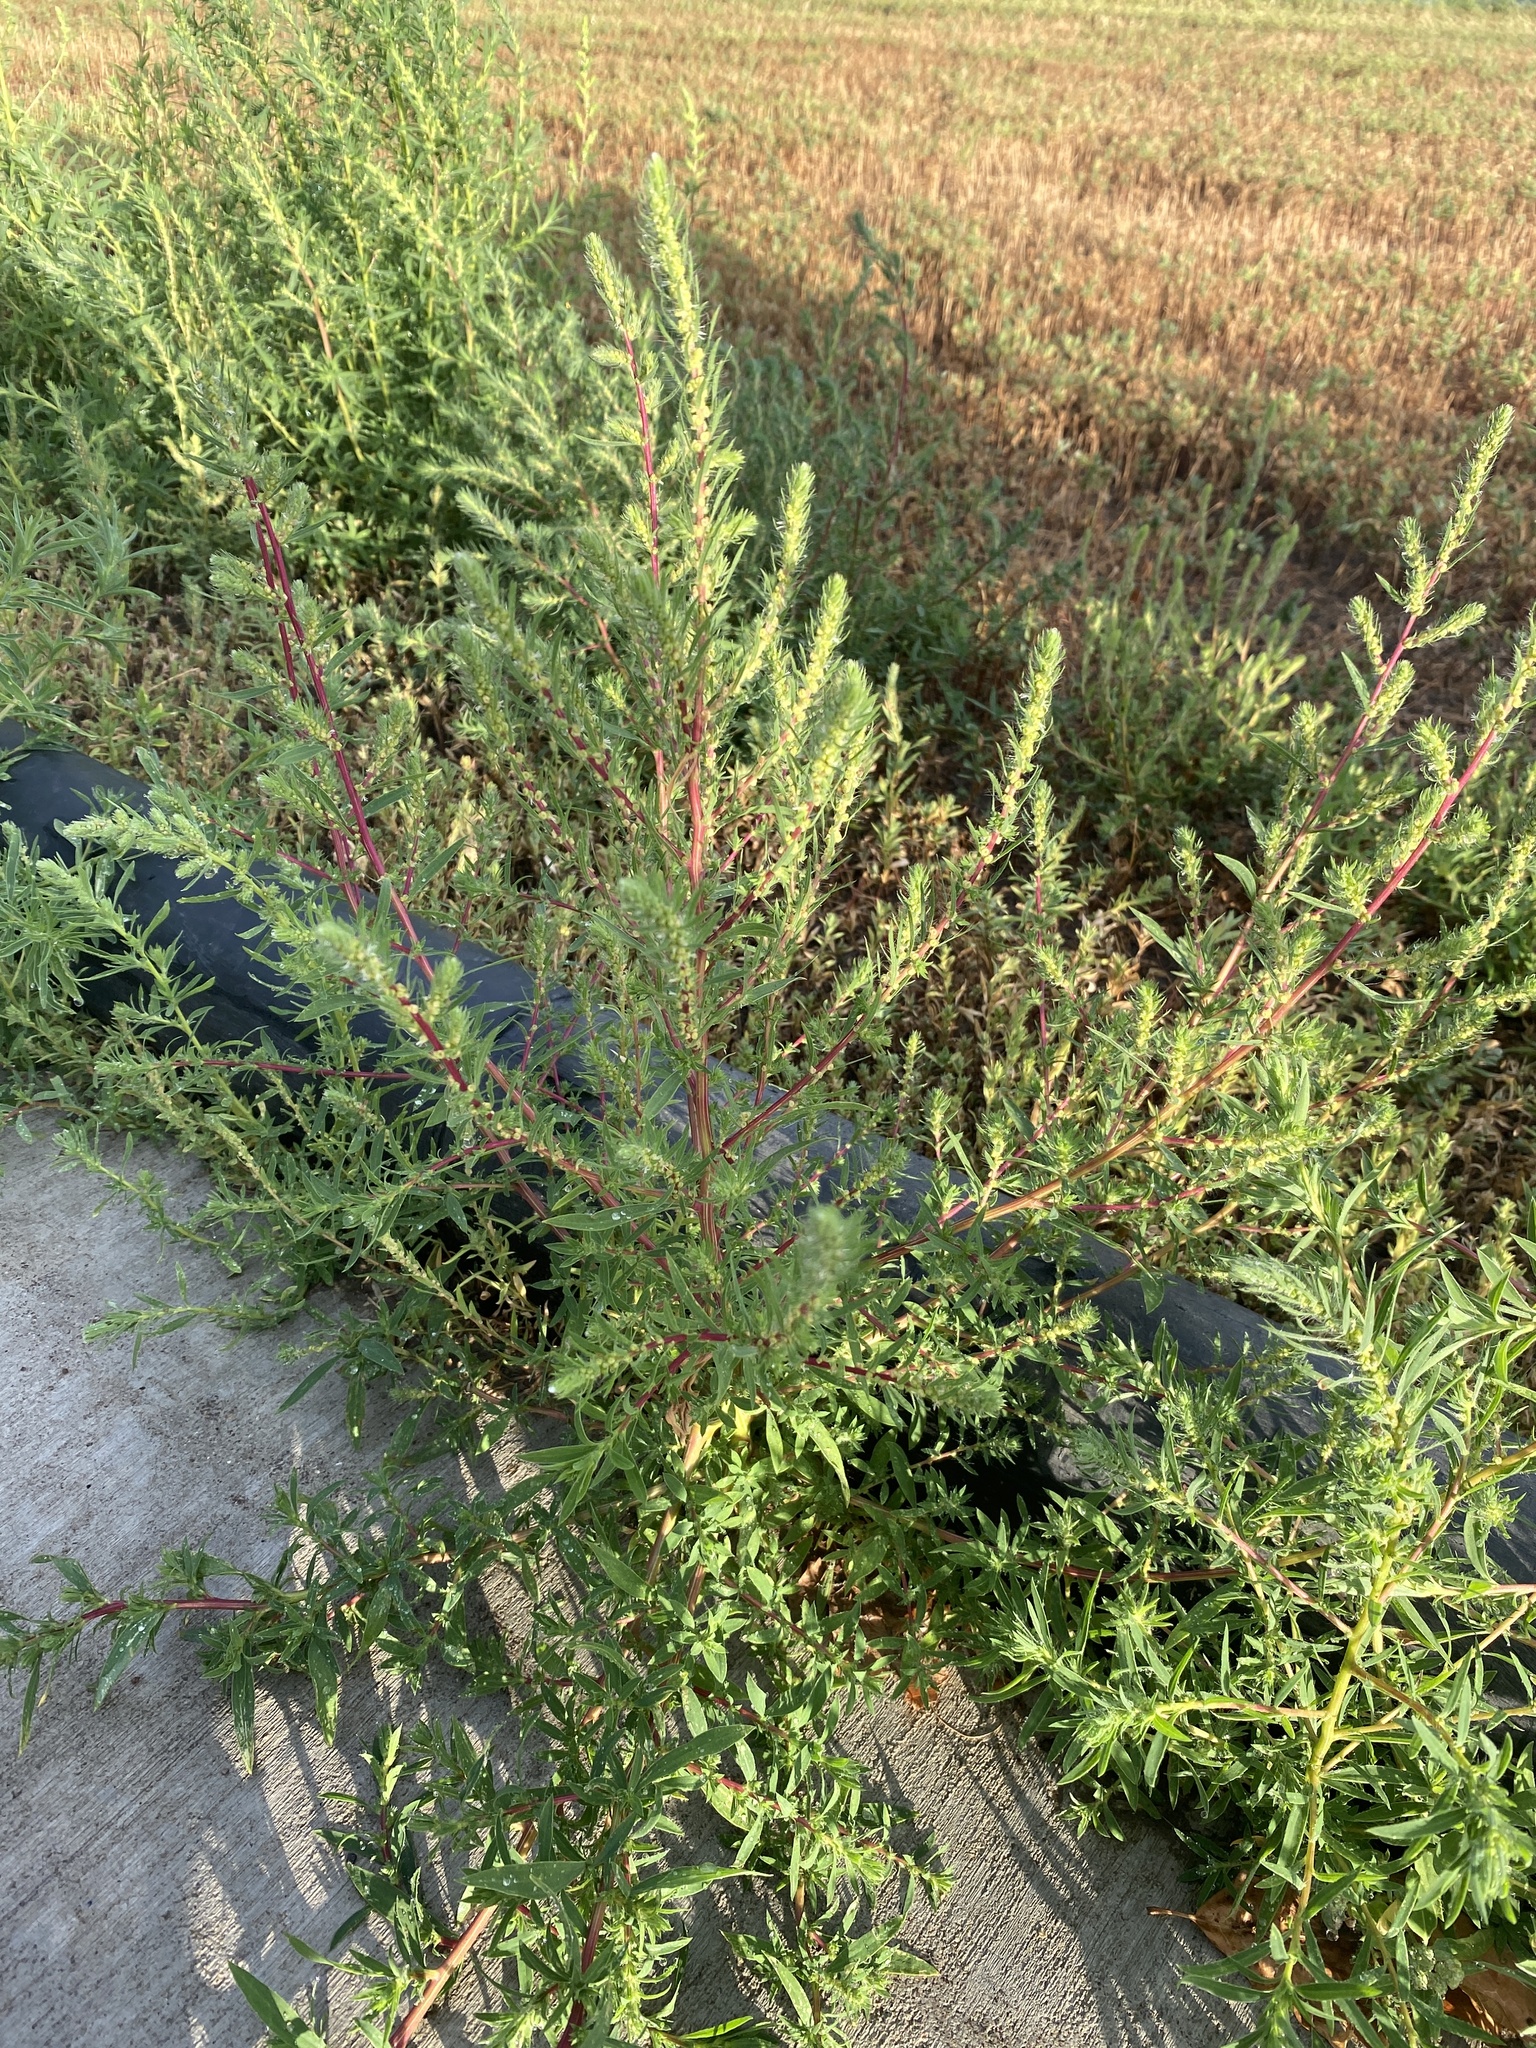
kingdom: Plantae
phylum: Tracheophyta
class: Magnoliopsida
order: Caryophyllales
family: Amaranthaceae
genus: Bassia
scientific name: Bassia scoparia
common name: Belvedere
